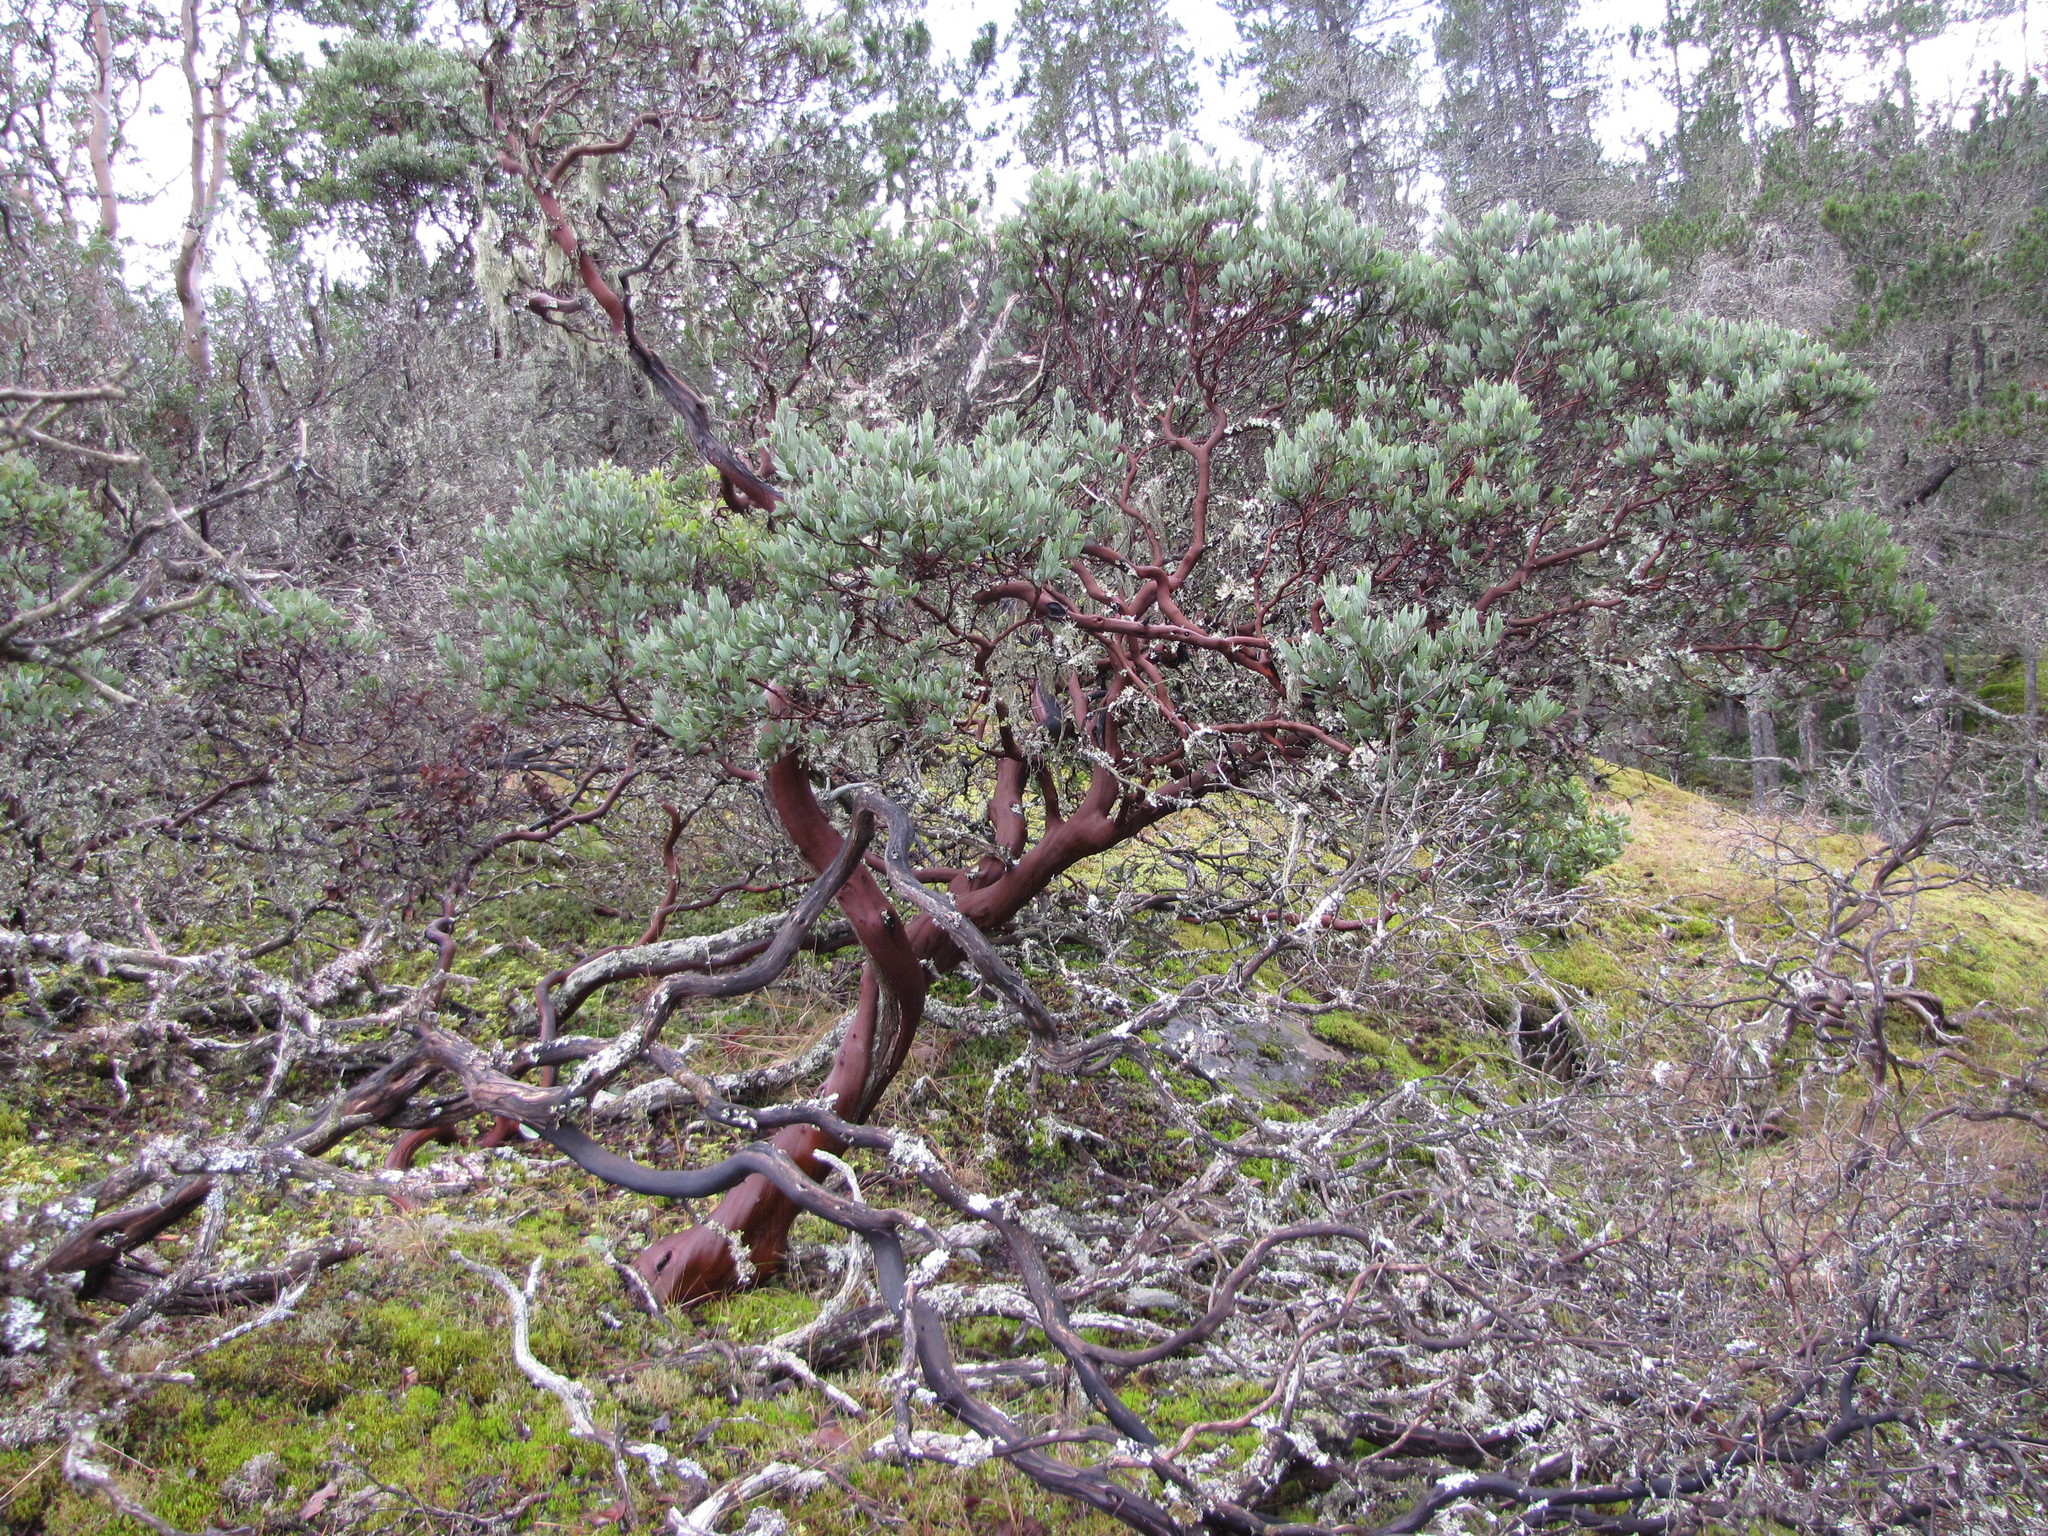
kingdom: Plantae
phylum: Tracheophyta
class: Magnoliopsida
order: Ericales
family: Ericaceae
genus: Arctostaphylos
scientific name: Arctostaphylos columbiana
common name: Bristly bearberry
